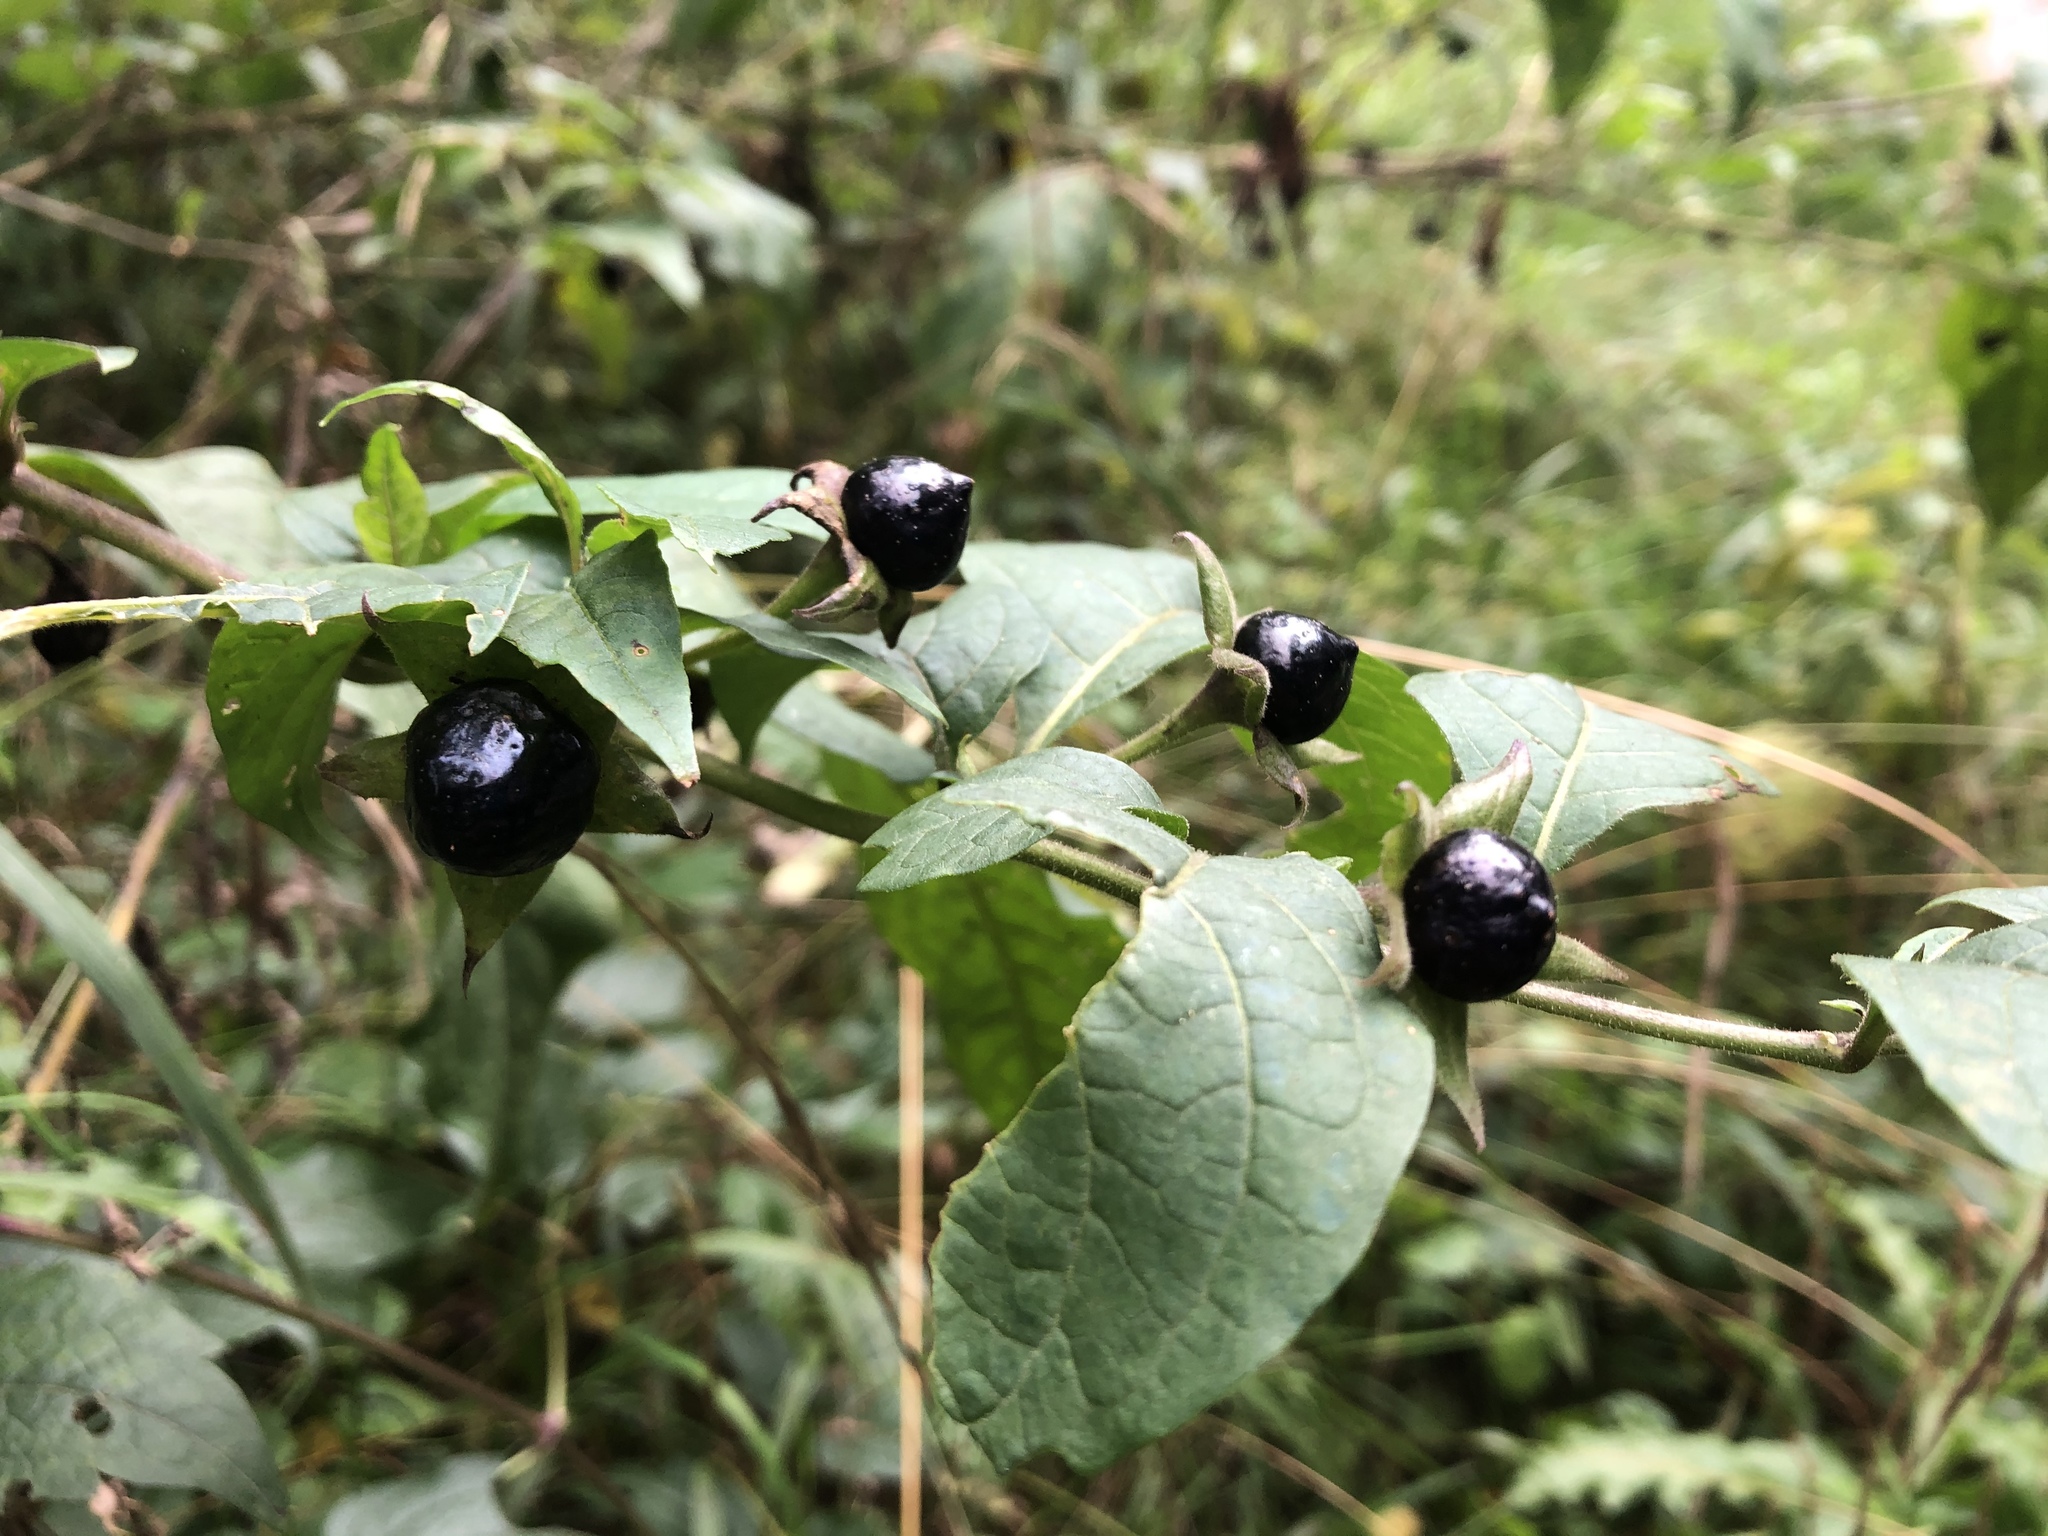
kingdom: Plantae
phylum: Tracheophyta
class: Magnoliopsida
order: Solanales
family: Solanaceae
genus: Atropa
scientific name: Atropa belladonna
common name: Deadly nightshade
